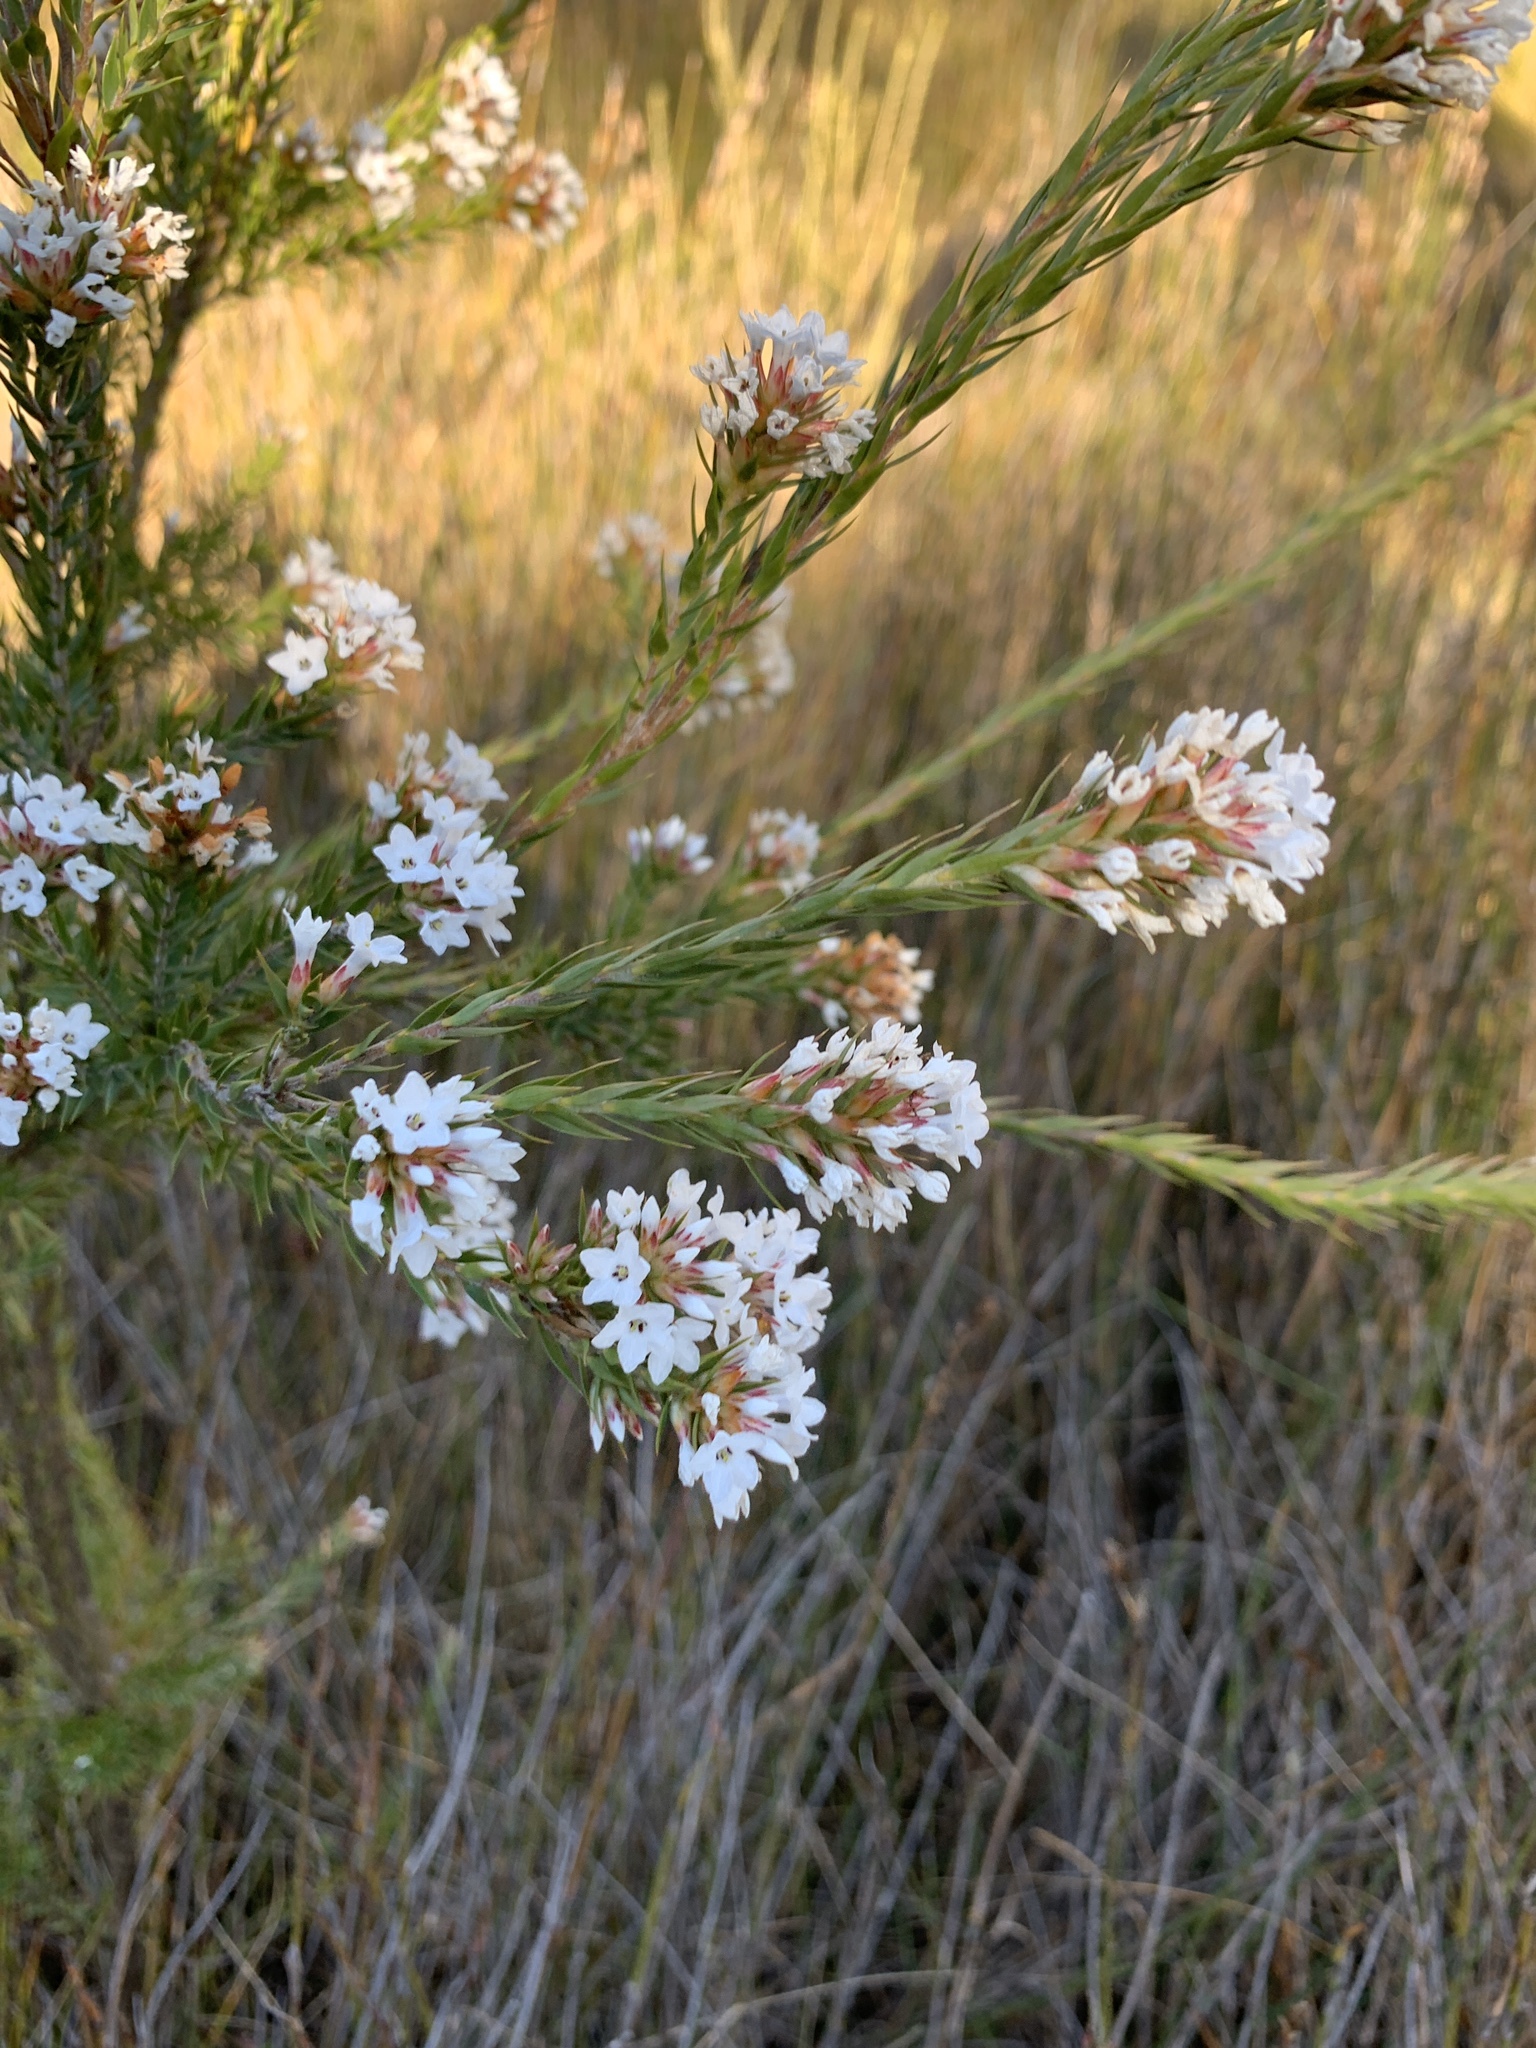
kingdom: Plantae
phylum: Tracheophyta
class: Magnoliopsida
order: Ericales
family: Ericaceae
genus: Epacris
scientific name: Epacris paludosa
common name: Swamp-heath
